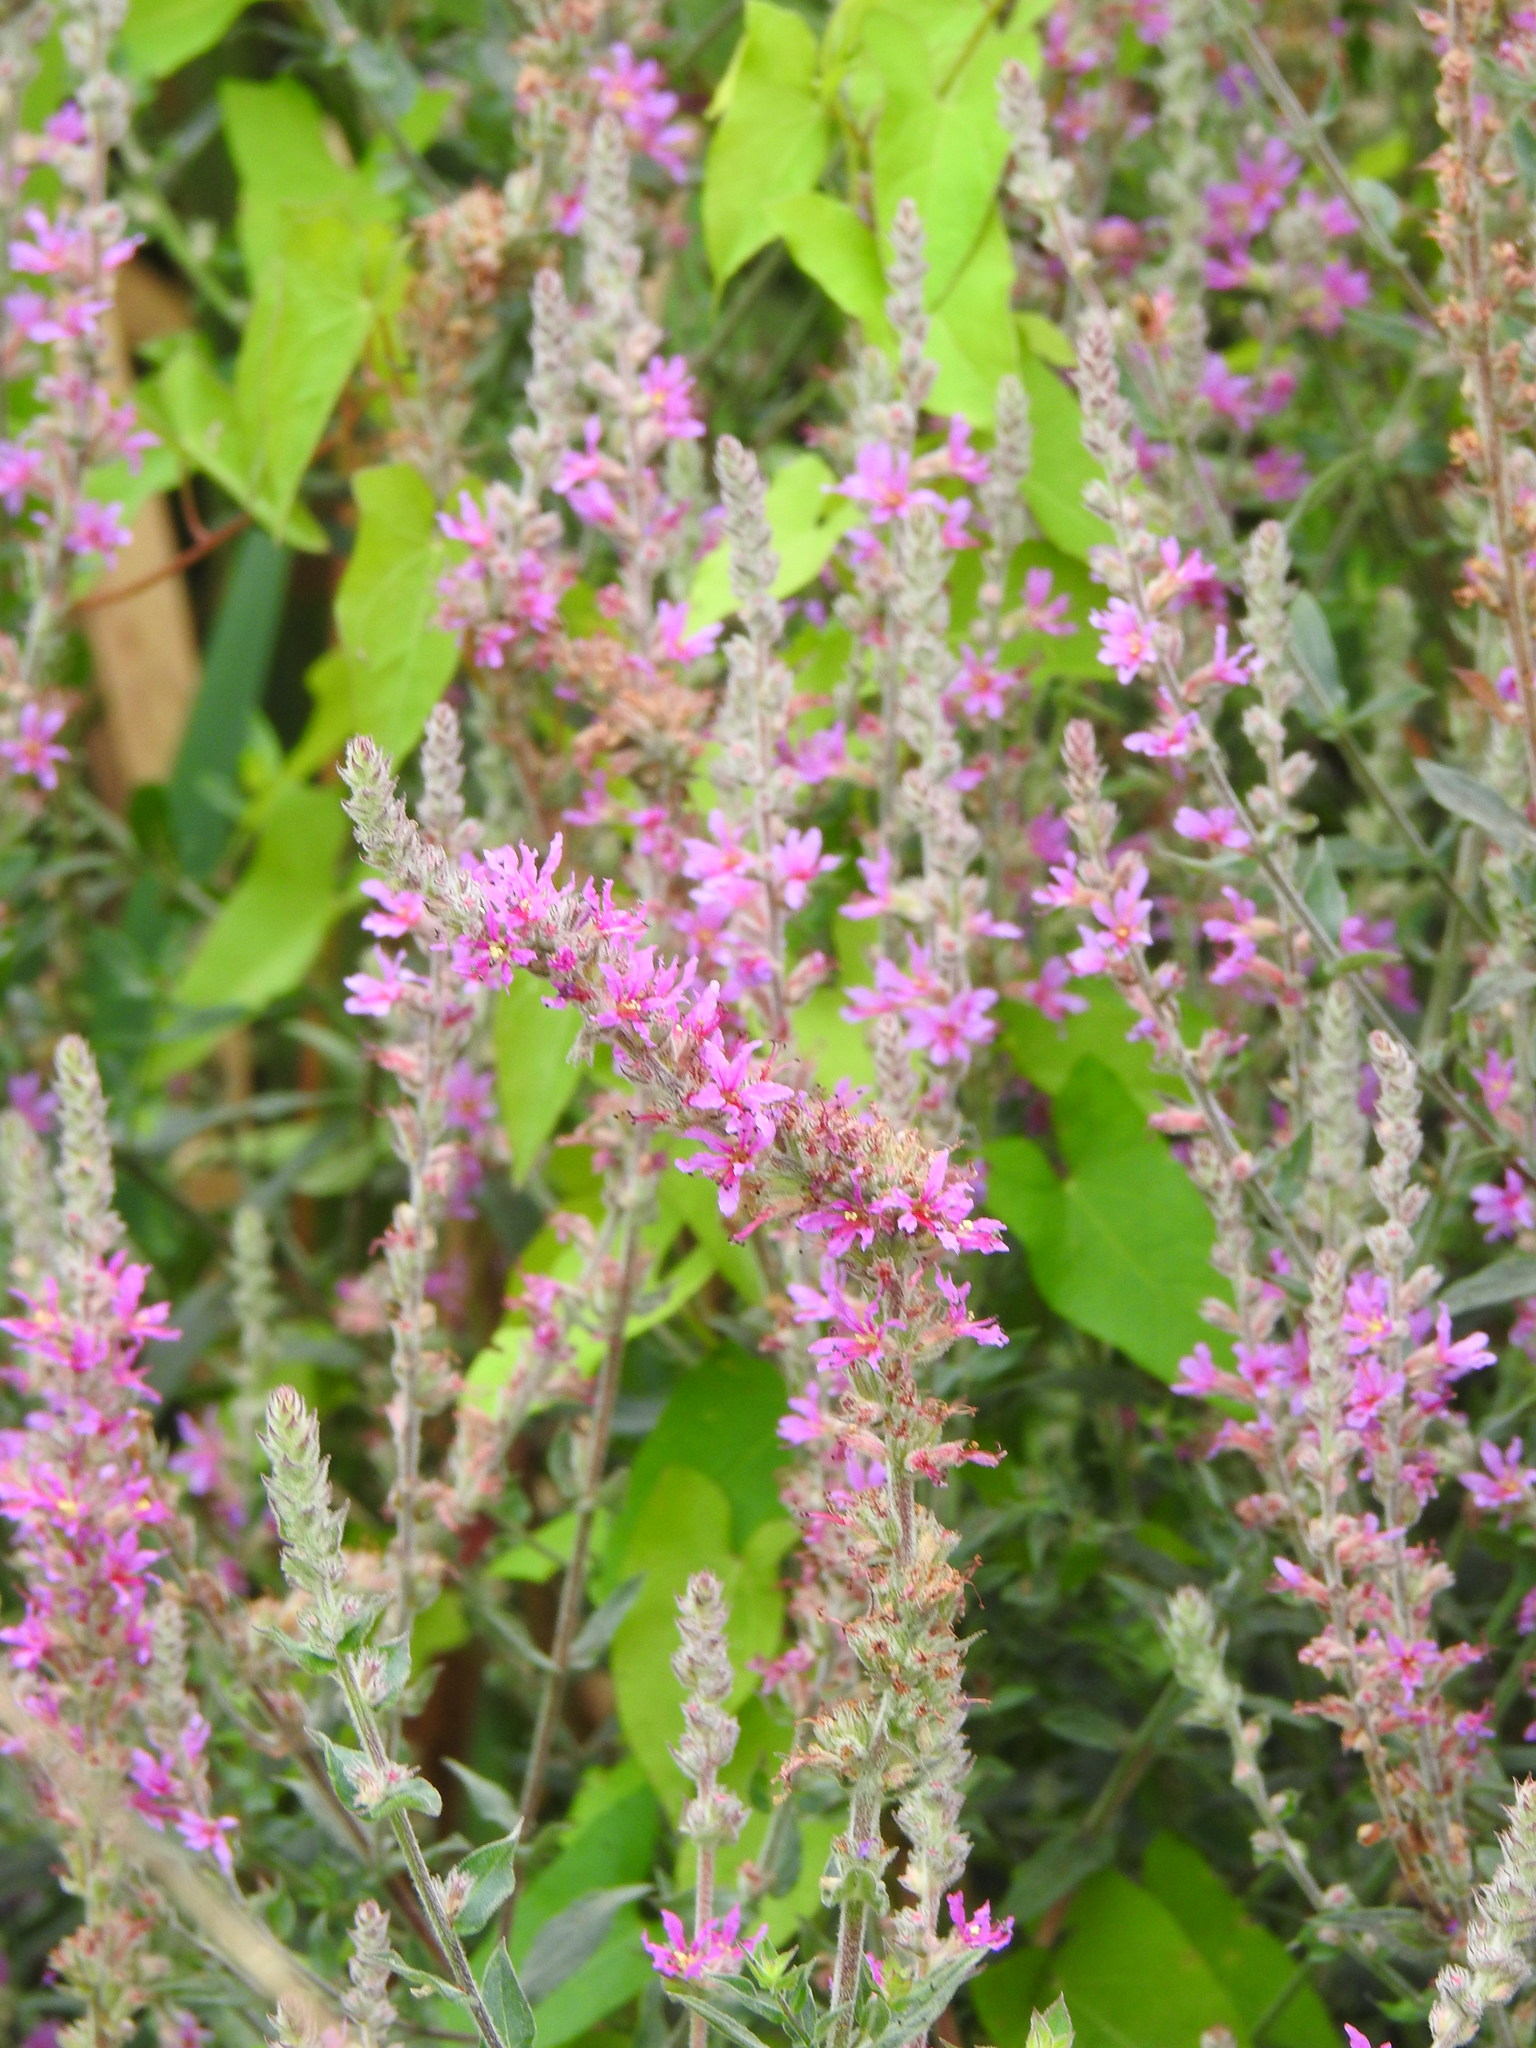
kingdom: Plantae
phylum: Tracheophyta
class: Magnoliopsida
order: Myrtales
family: Lythraceae
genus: Lythrum
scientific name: Lythrum salicaria
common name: Purple loosestrife
